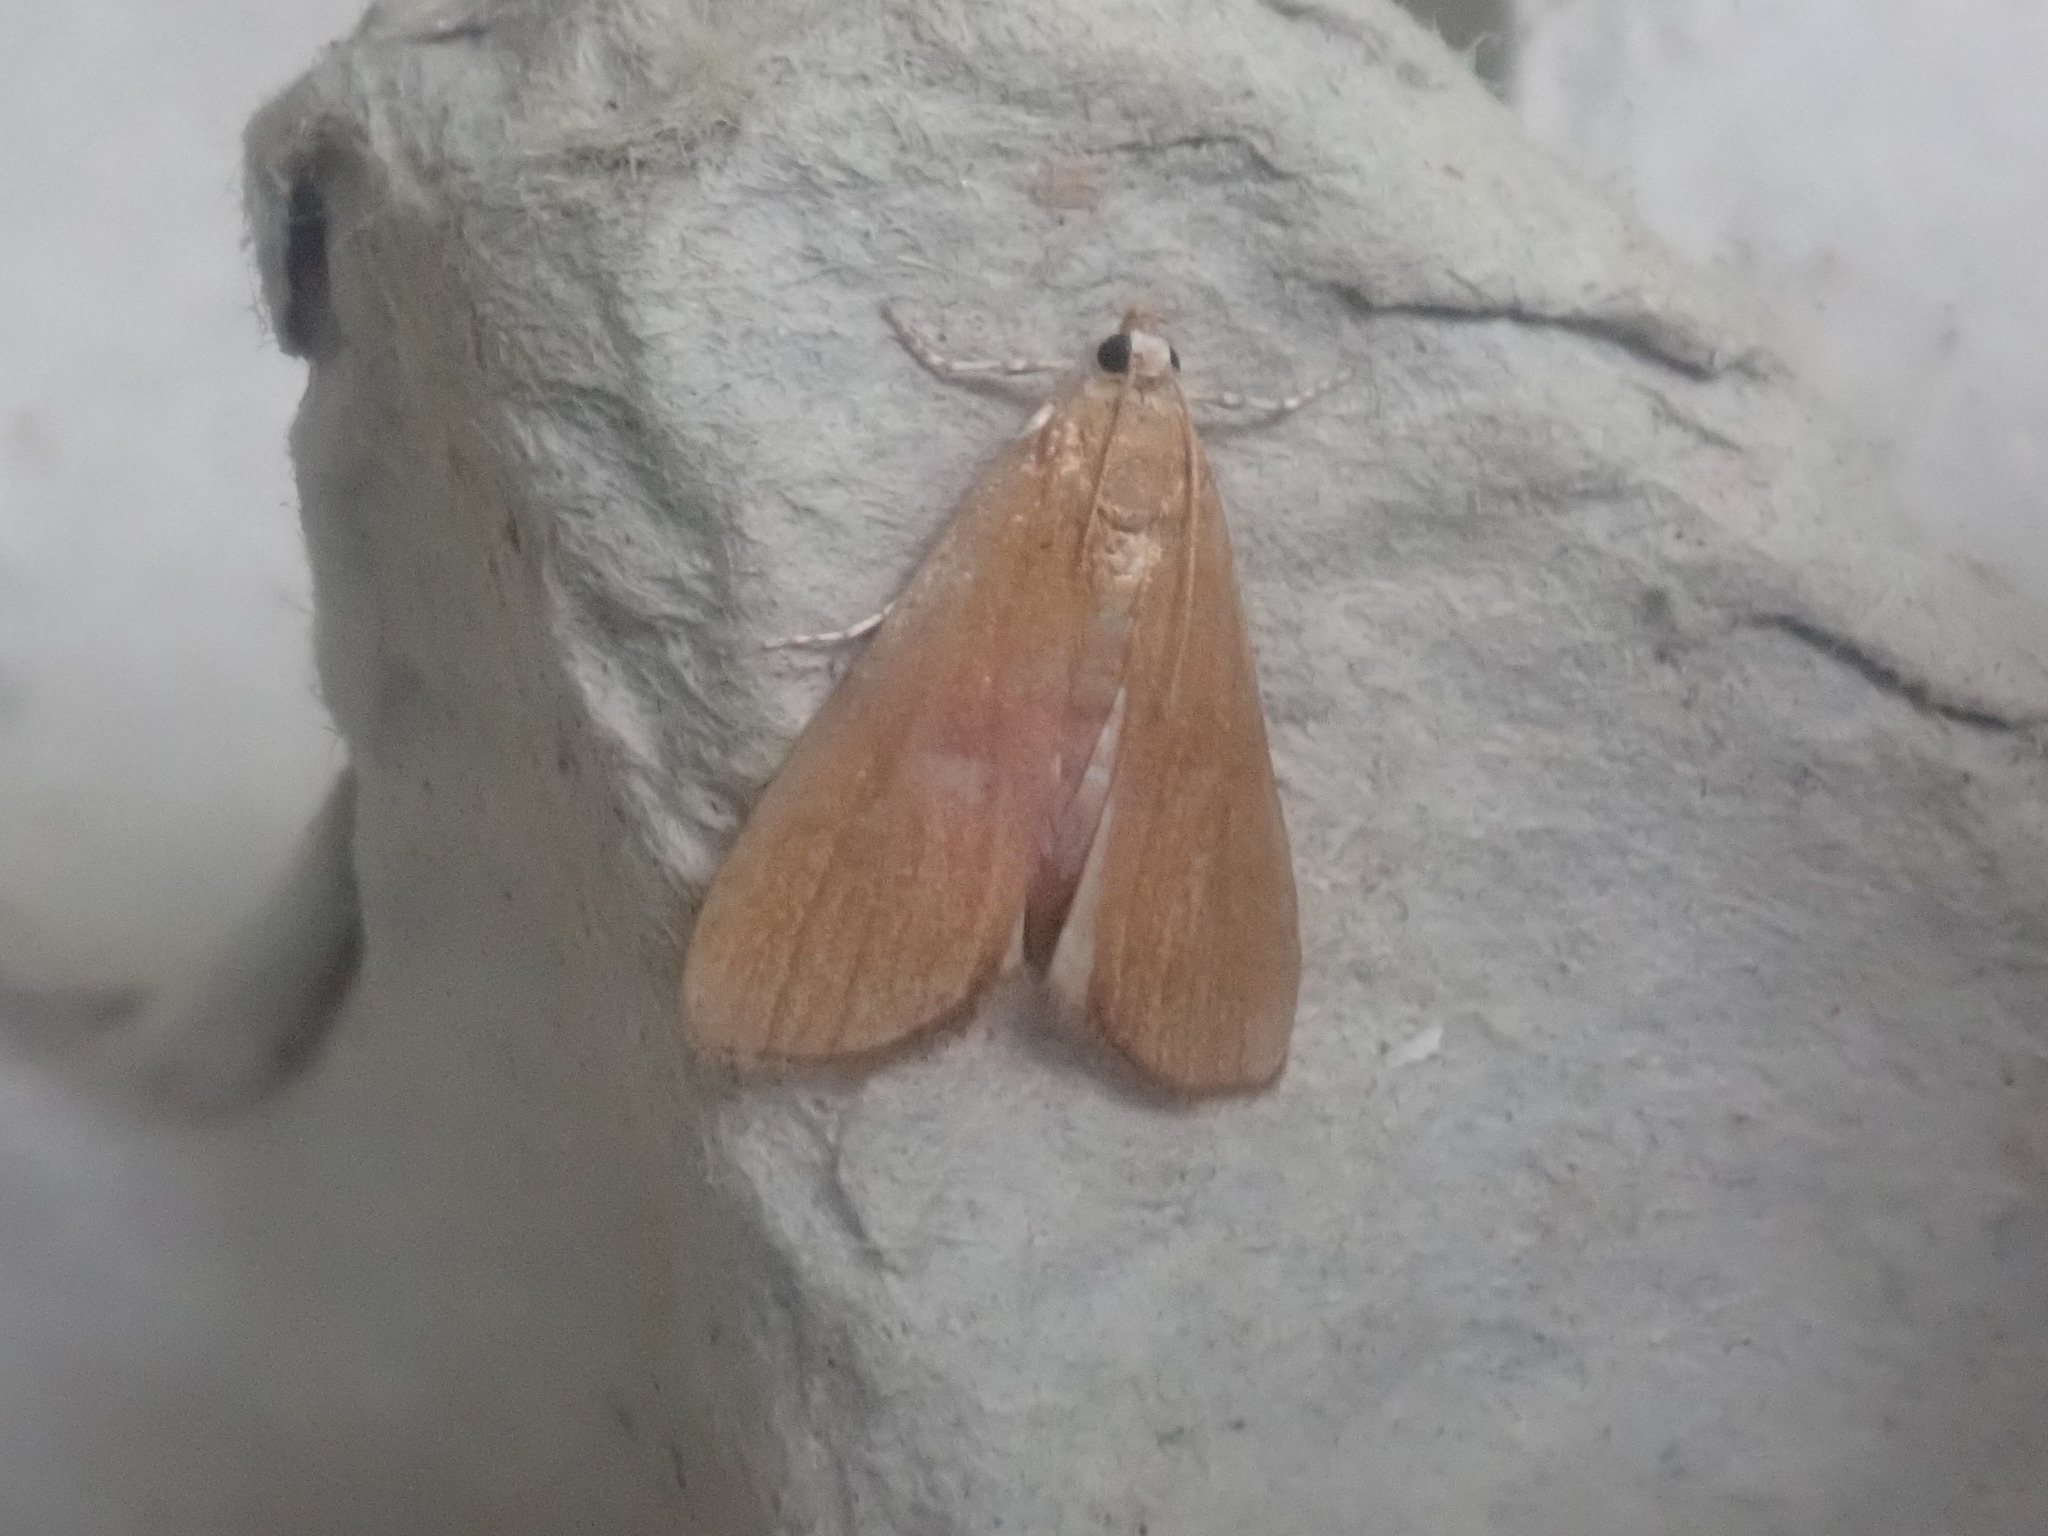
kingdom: Animalia
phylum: Arthropoda
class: Insecta
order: Lepidoptera
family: Crambidae
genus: Elophila
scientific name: Elophila gyralis
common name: Waterlily borer moth
